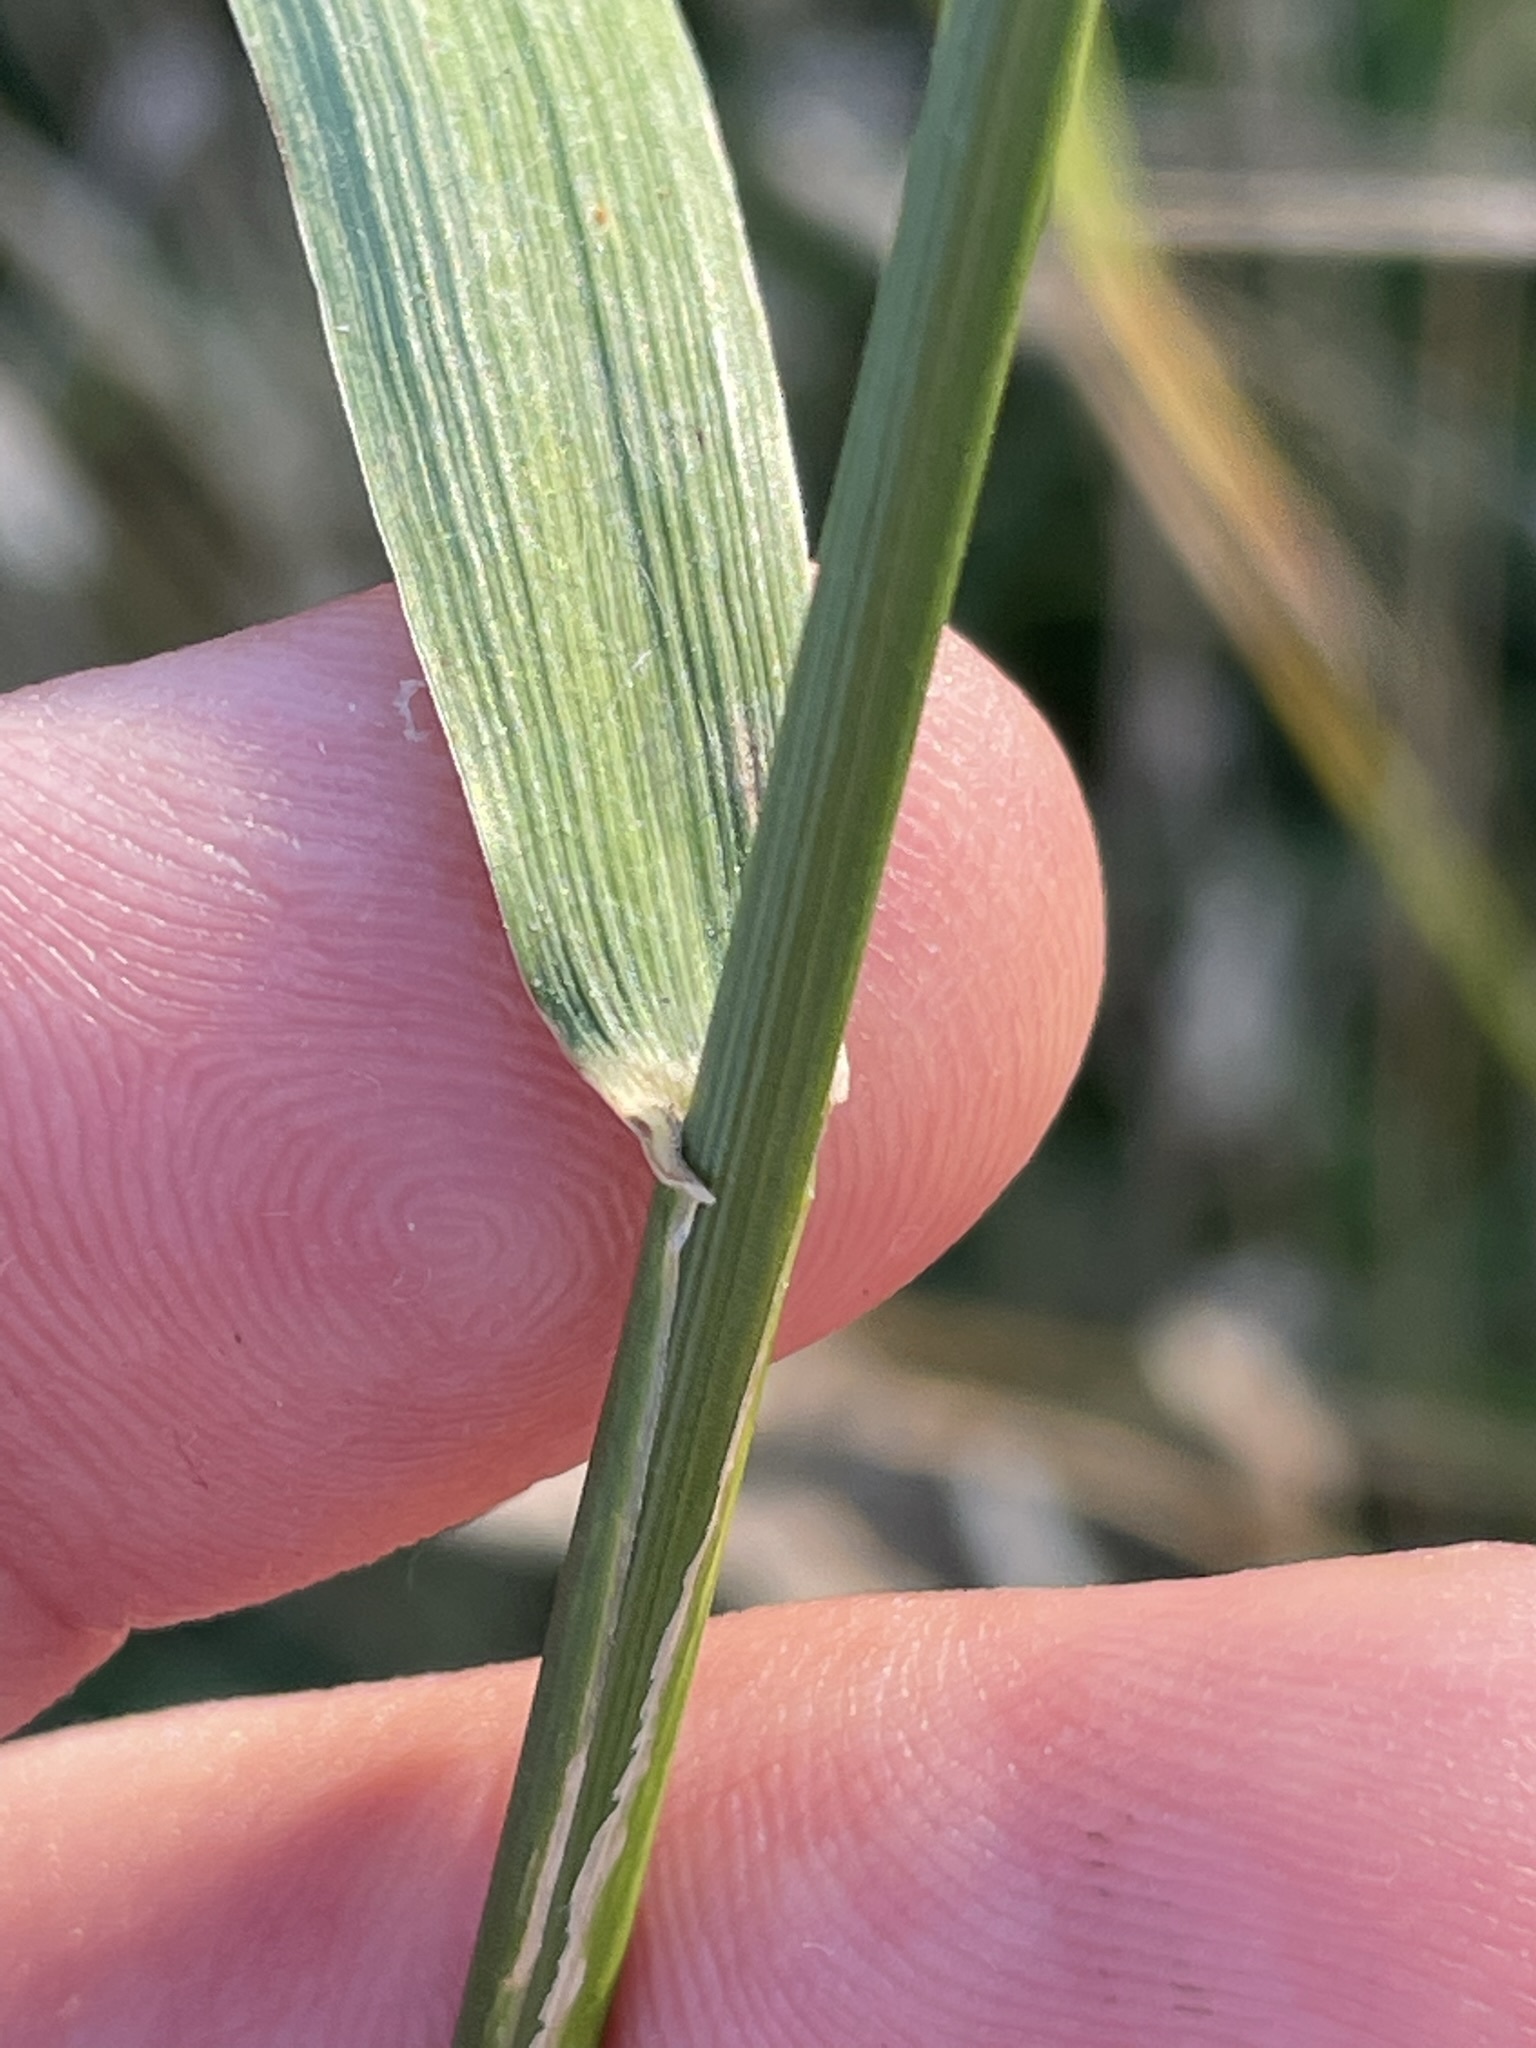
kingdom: Plantae
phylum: Tracheophyta
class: Liliopsida
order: Poales
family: Poaceae
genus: Elymus
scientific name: Elymus caninus
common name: Bearded couch
